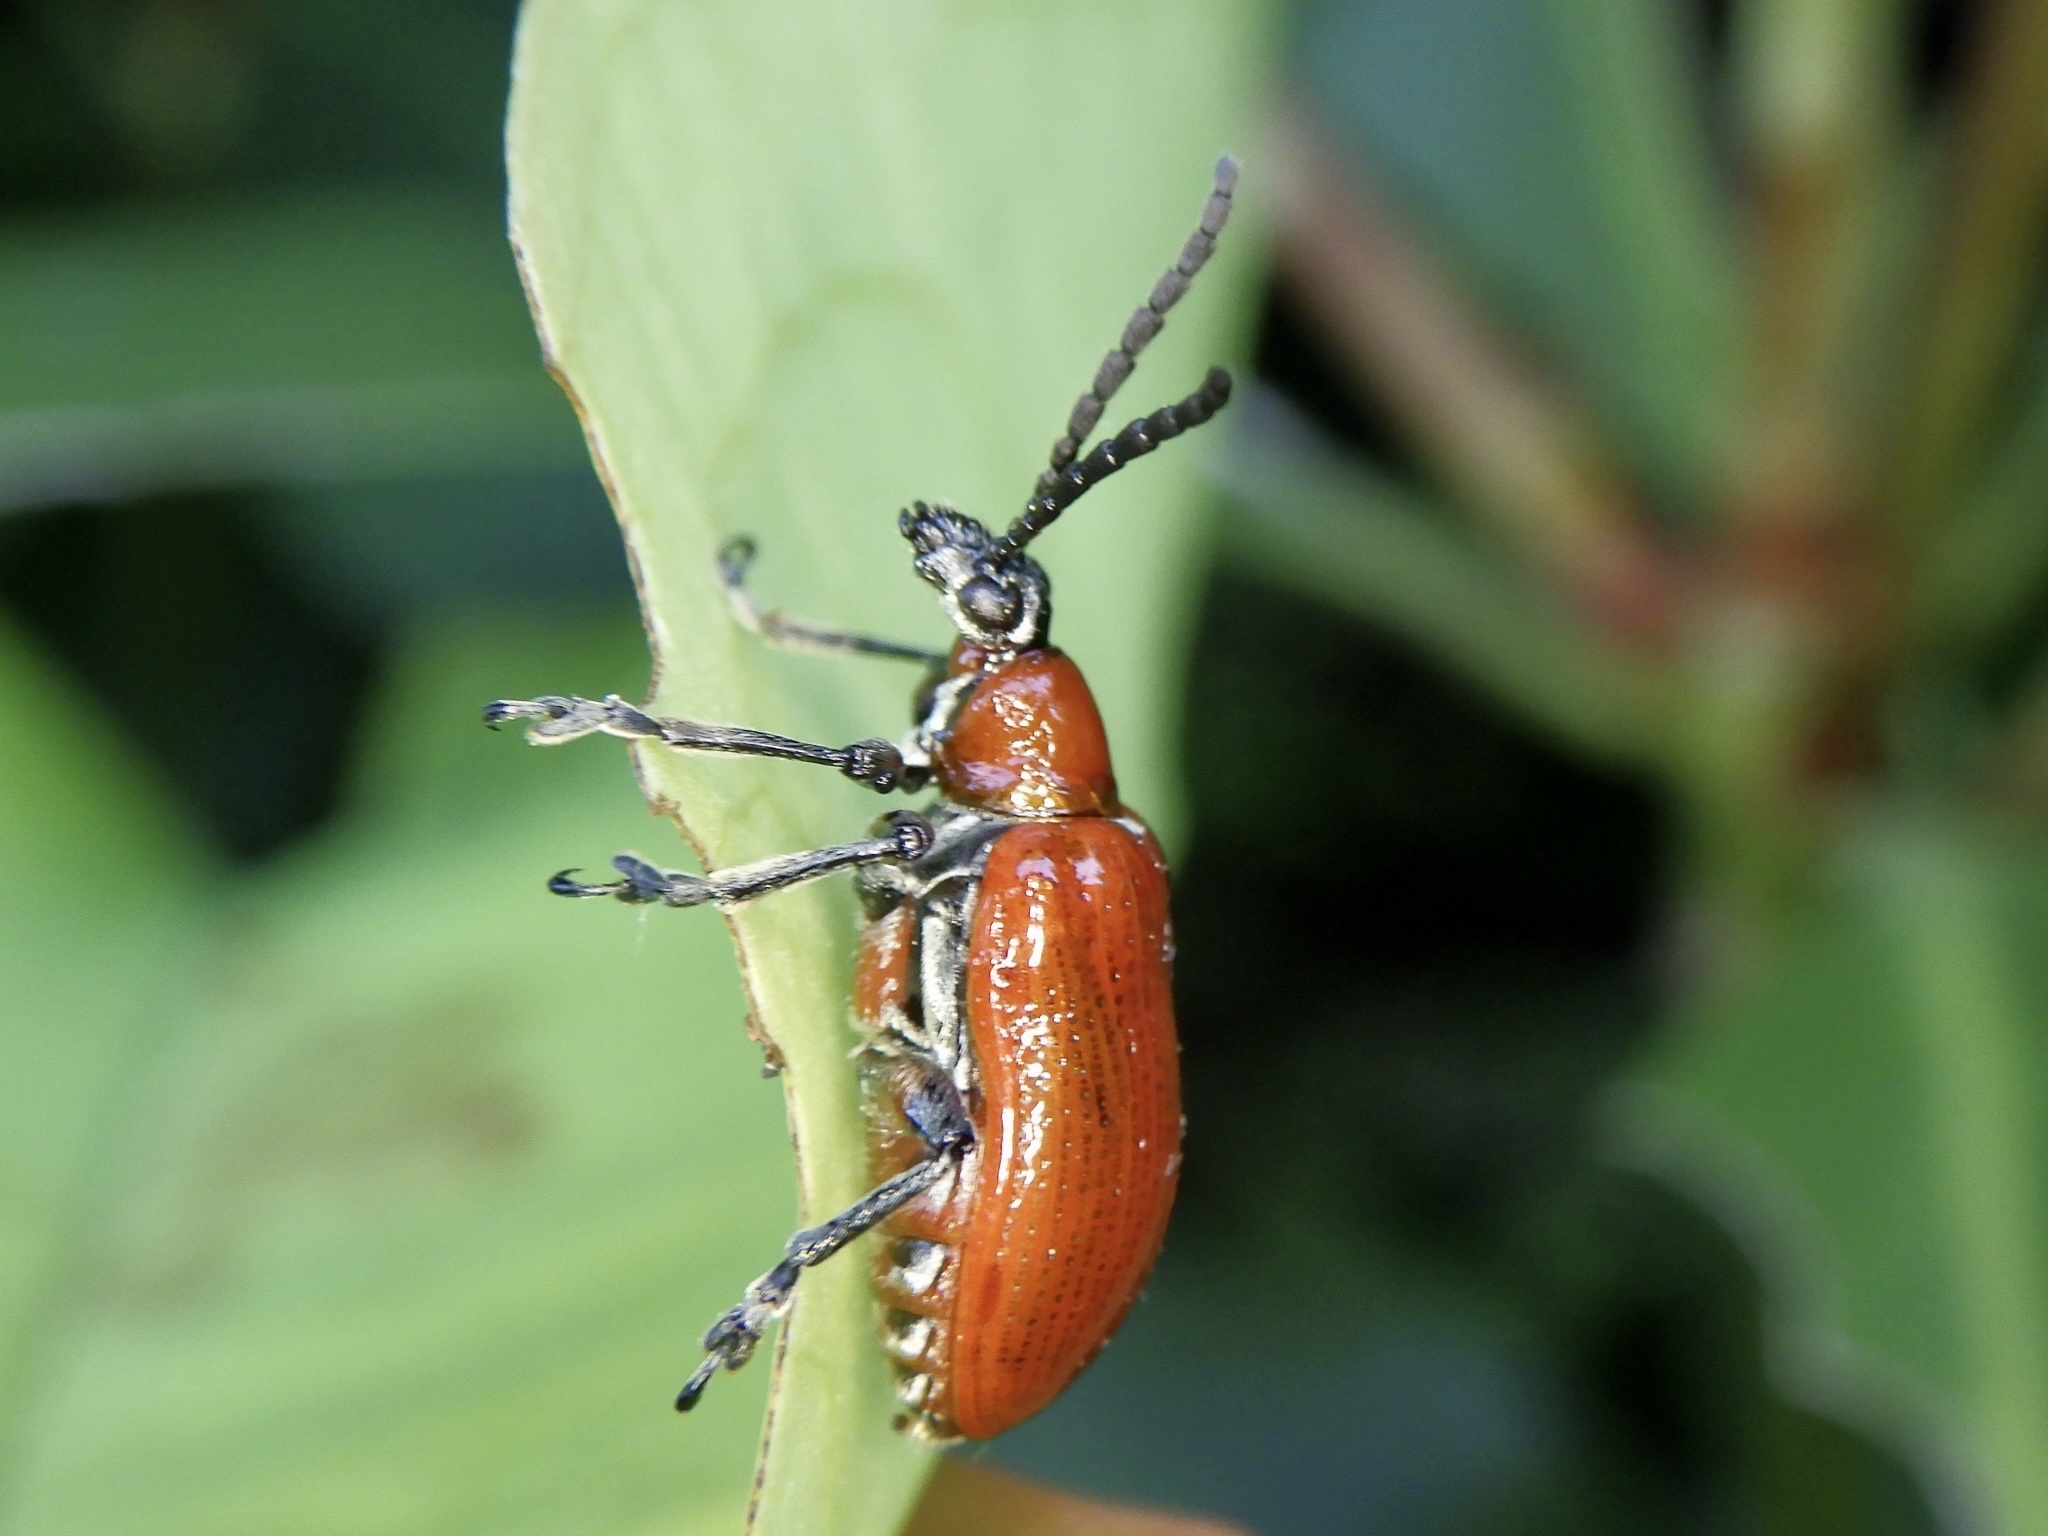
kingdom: Animalia
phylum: Arthropoda
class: Insecta
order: Coleoptera
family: Chrysomelidae
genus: Lilioceris
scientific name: Lilioceris subpolita
